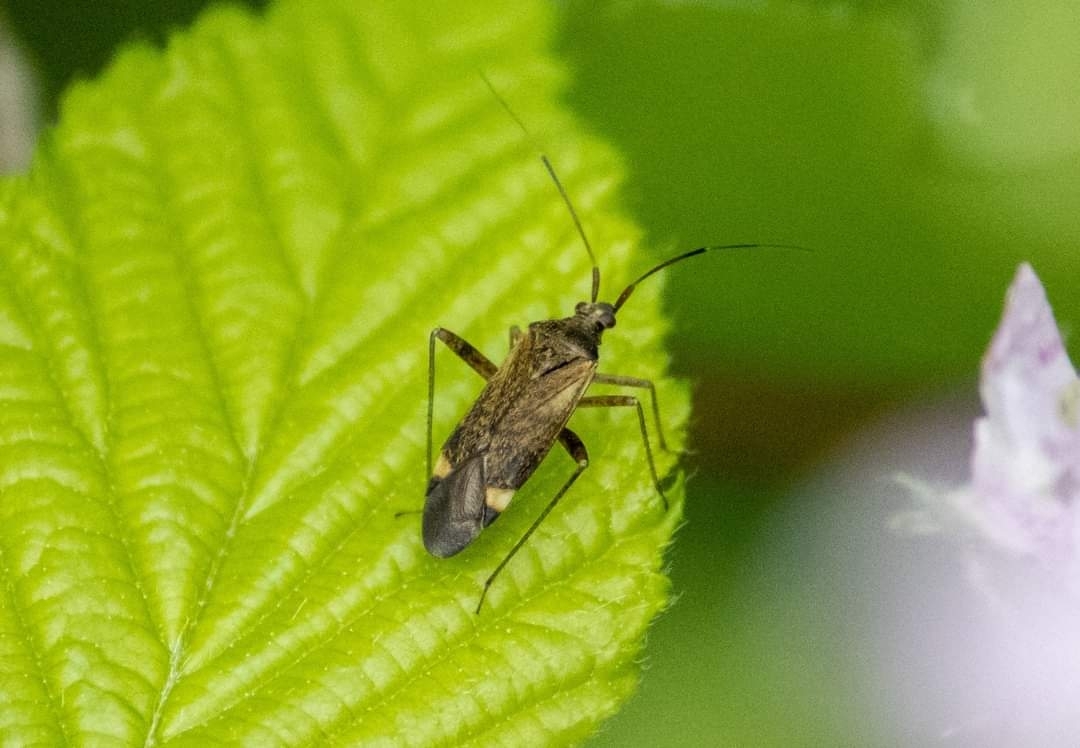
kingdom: Animalia
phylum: Arthropoda
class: Insecta
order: Hemiptera
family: Miridae
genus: Closterotomus
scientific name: Closterotomus fulvomaculatus
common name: Spotted plant bug
